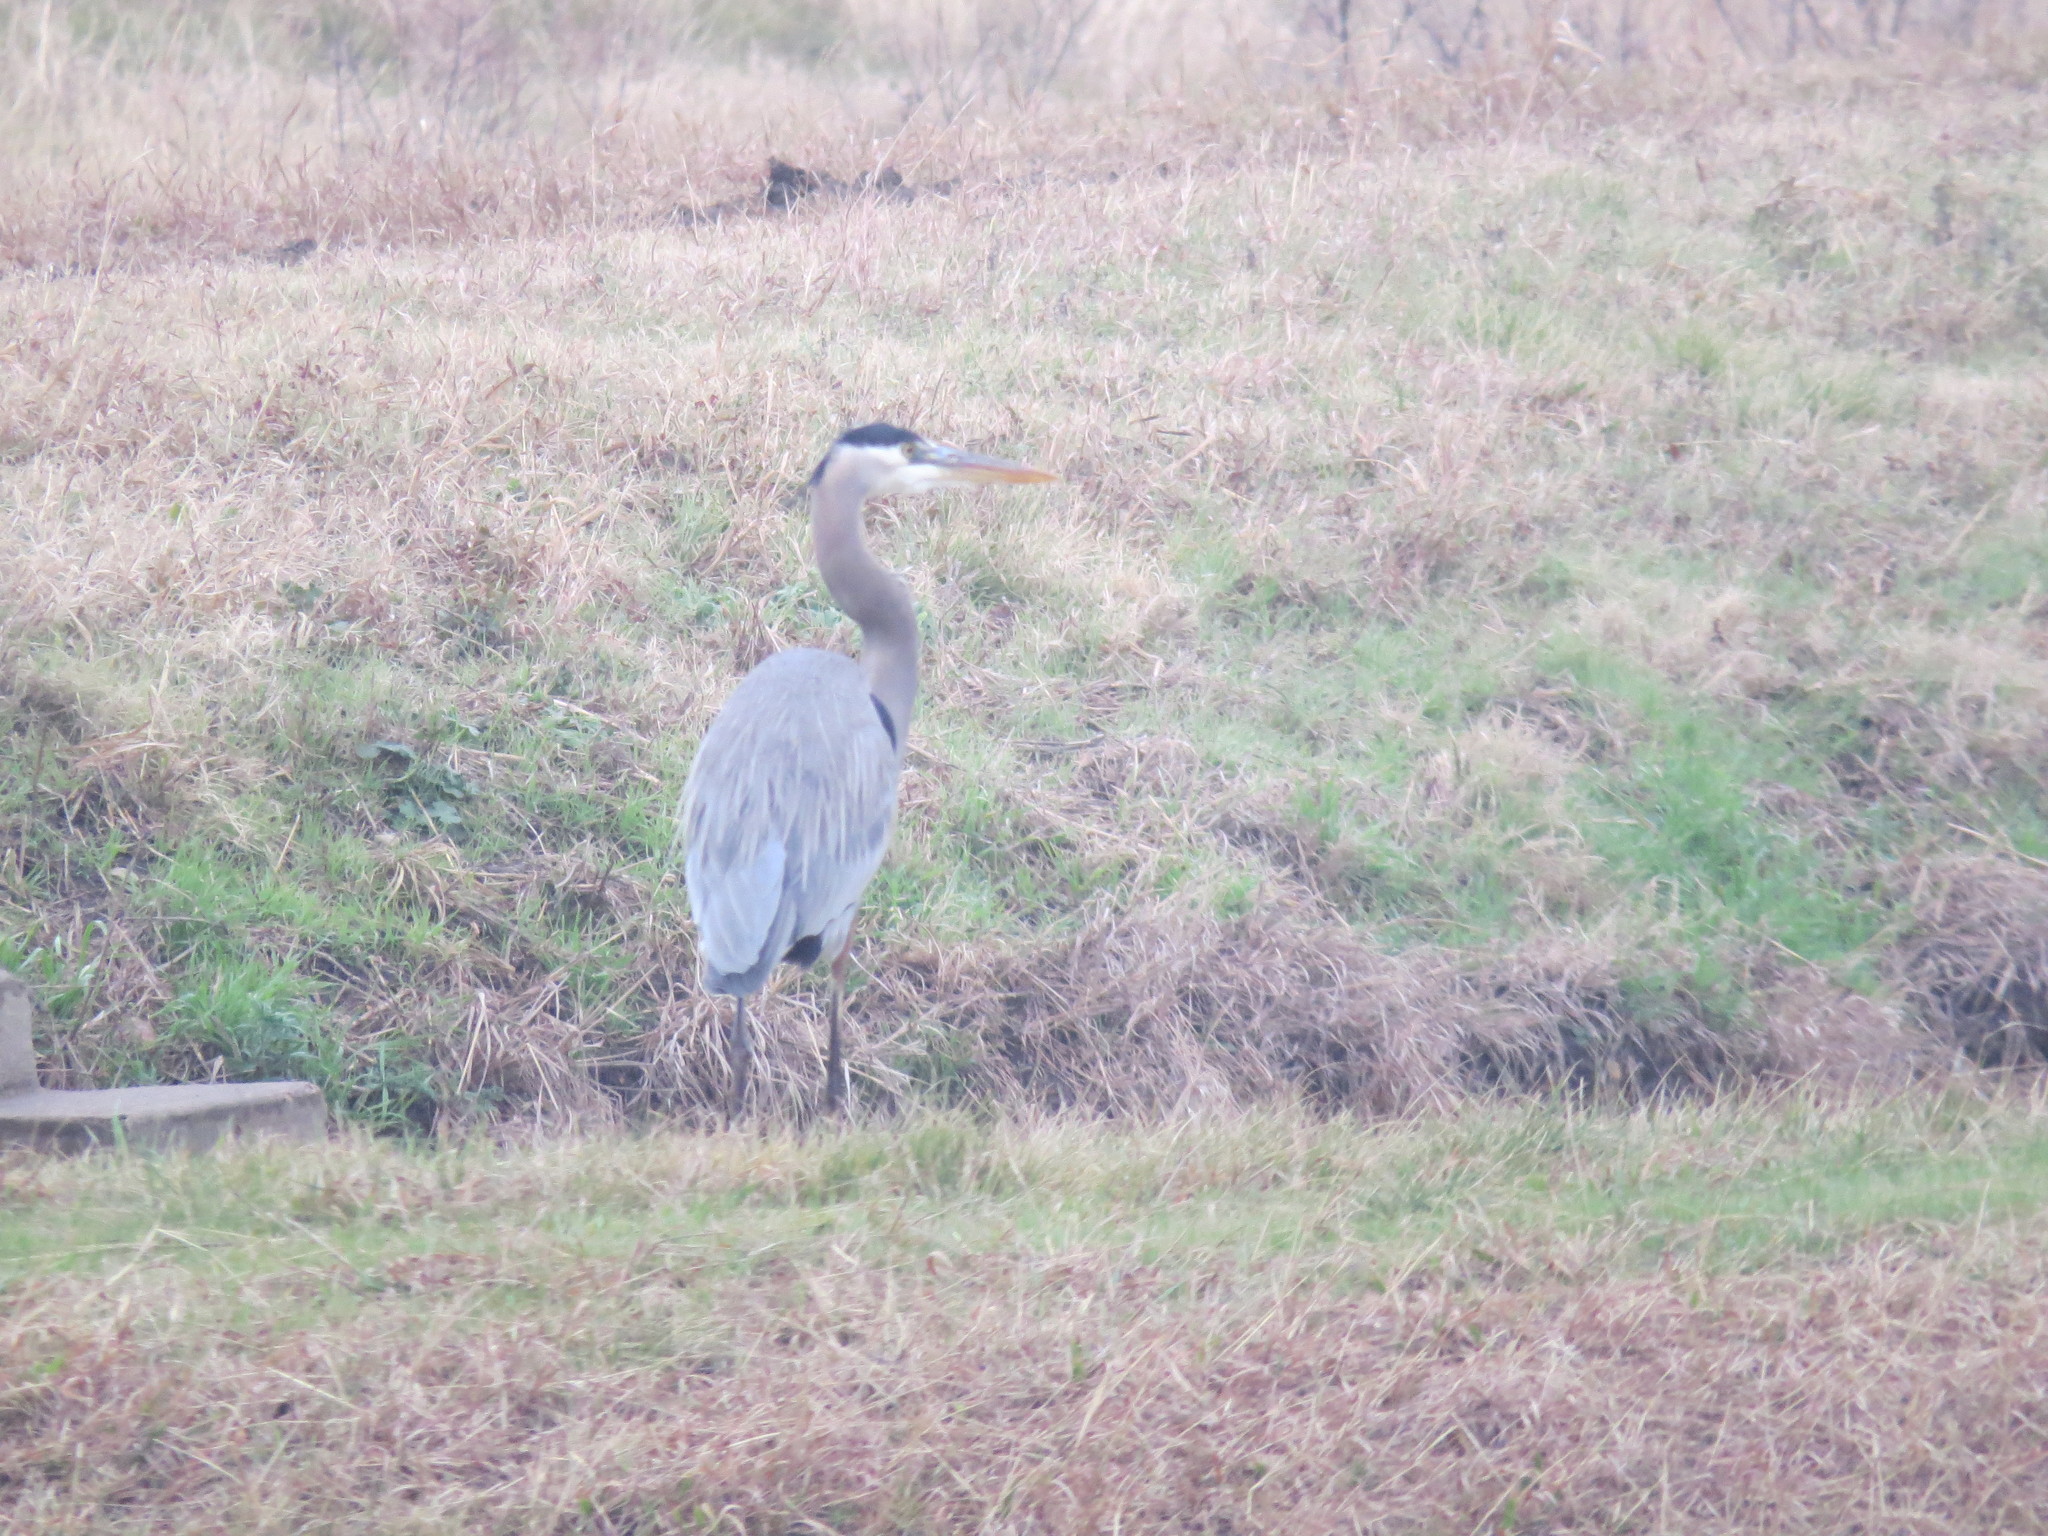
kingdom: Animalia
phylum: Chordata
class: Aves
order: Pelecaniformes
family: Ardeidae
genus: Ardea
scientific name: Ardea herodias
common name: Great blue heron
